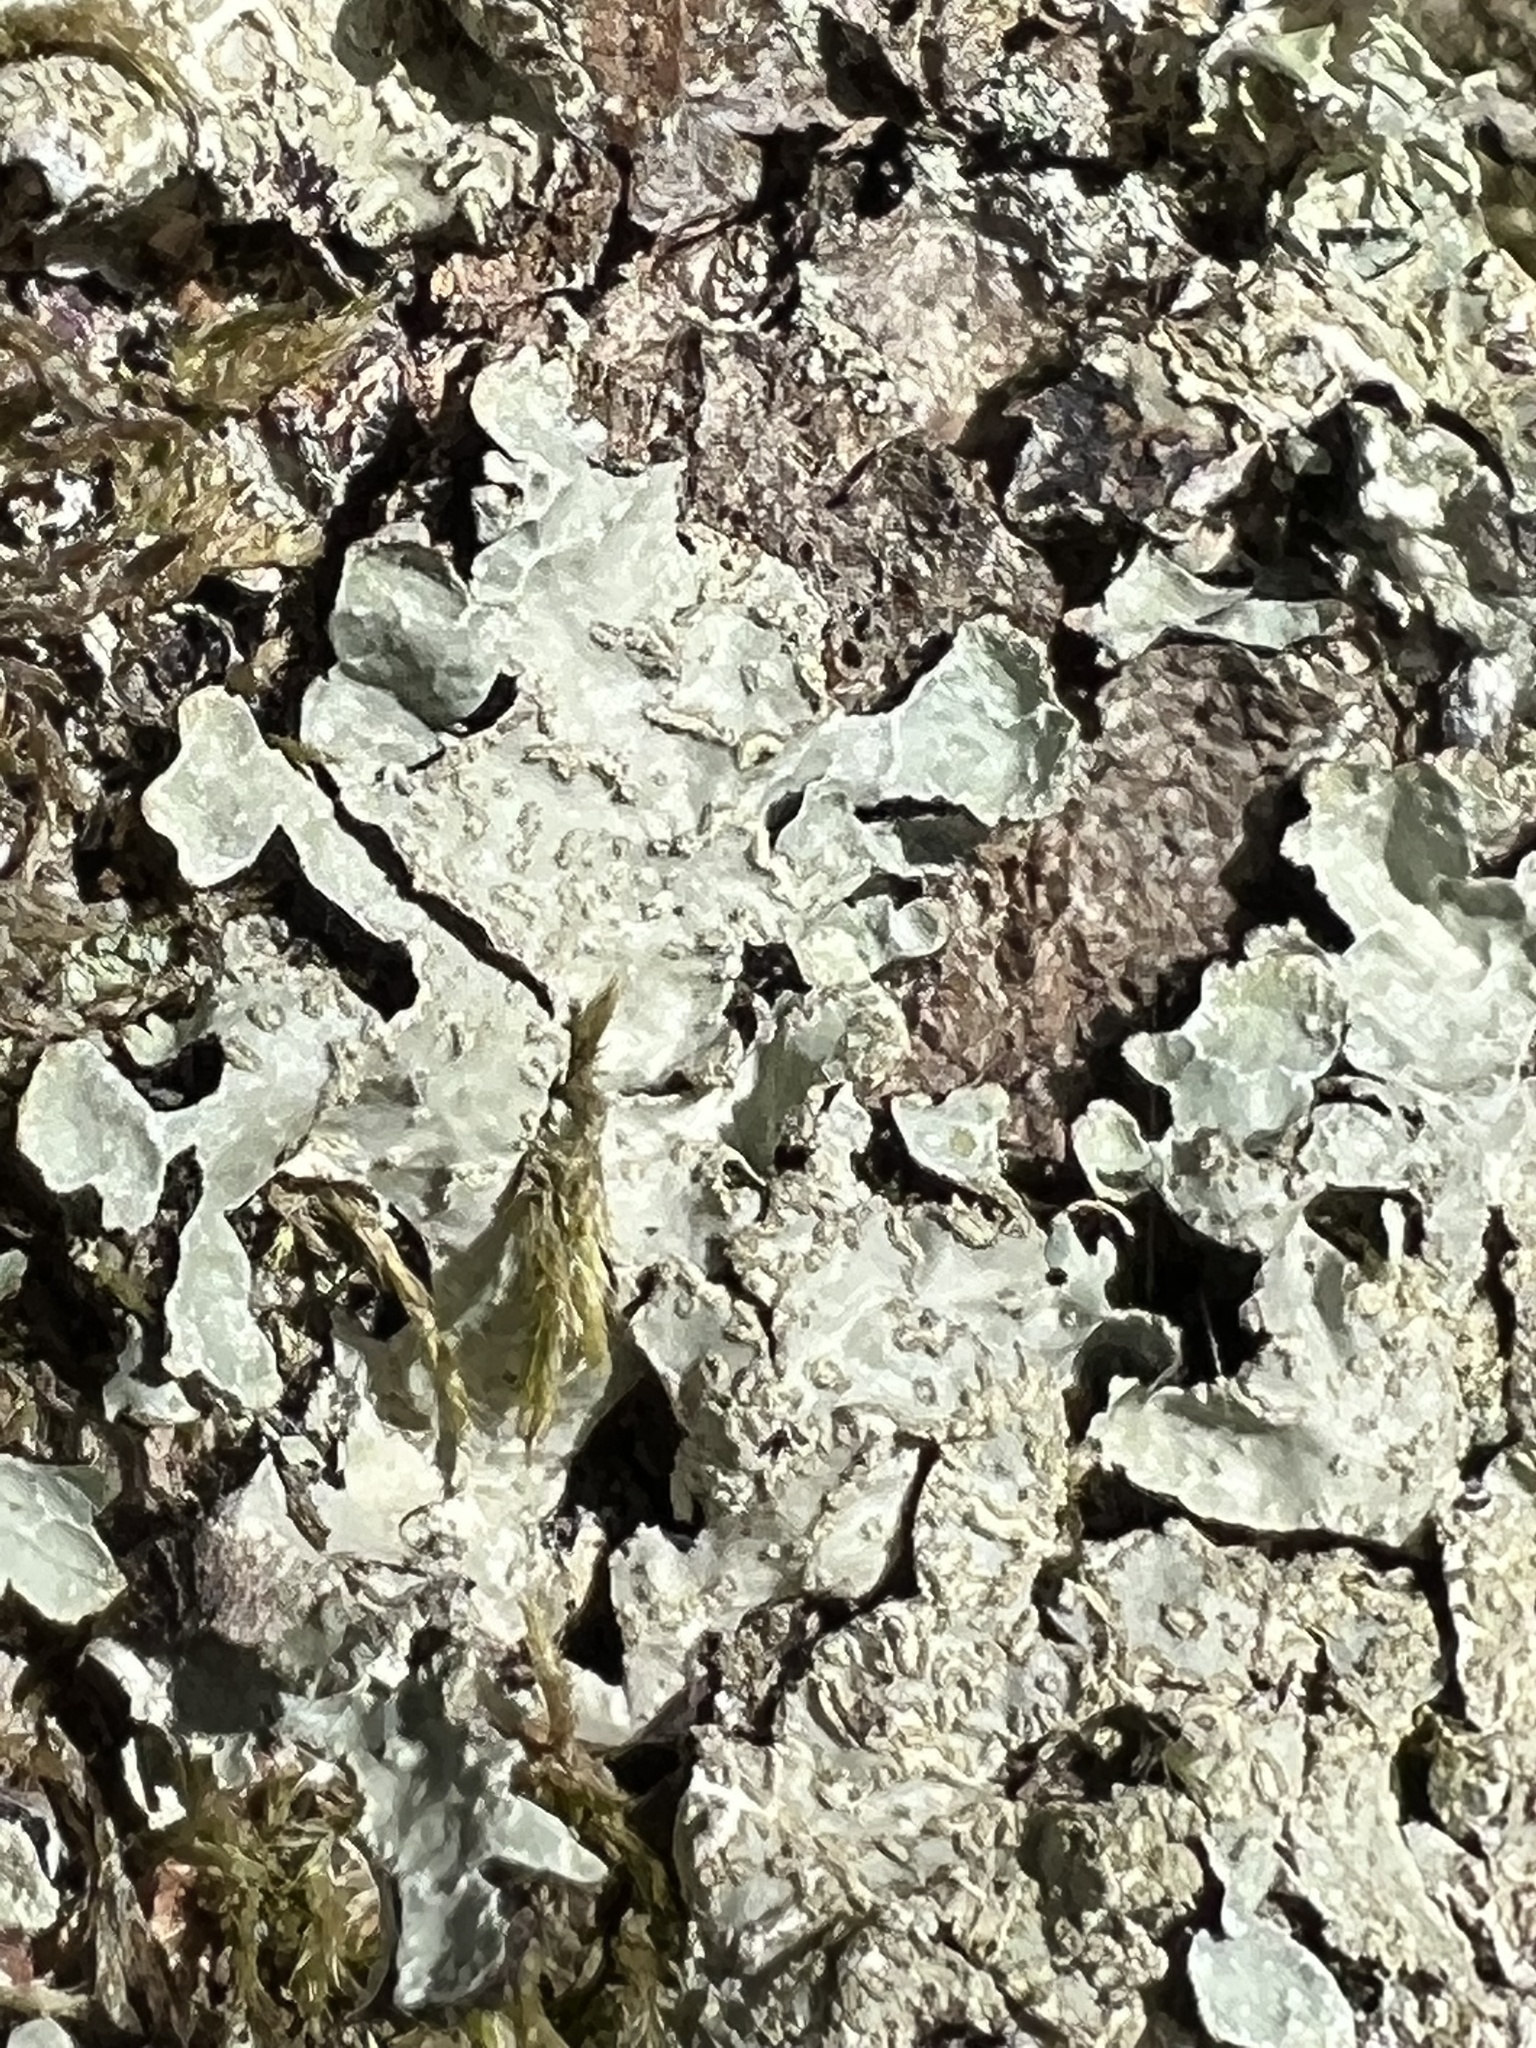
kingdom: Fungi
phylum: Ascomycota
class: Lecanoromycetes
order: Lecanorales
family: Parmeliaceae
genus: Parmelia
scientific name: Parmelia sulcata
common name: Netted shield lichen
